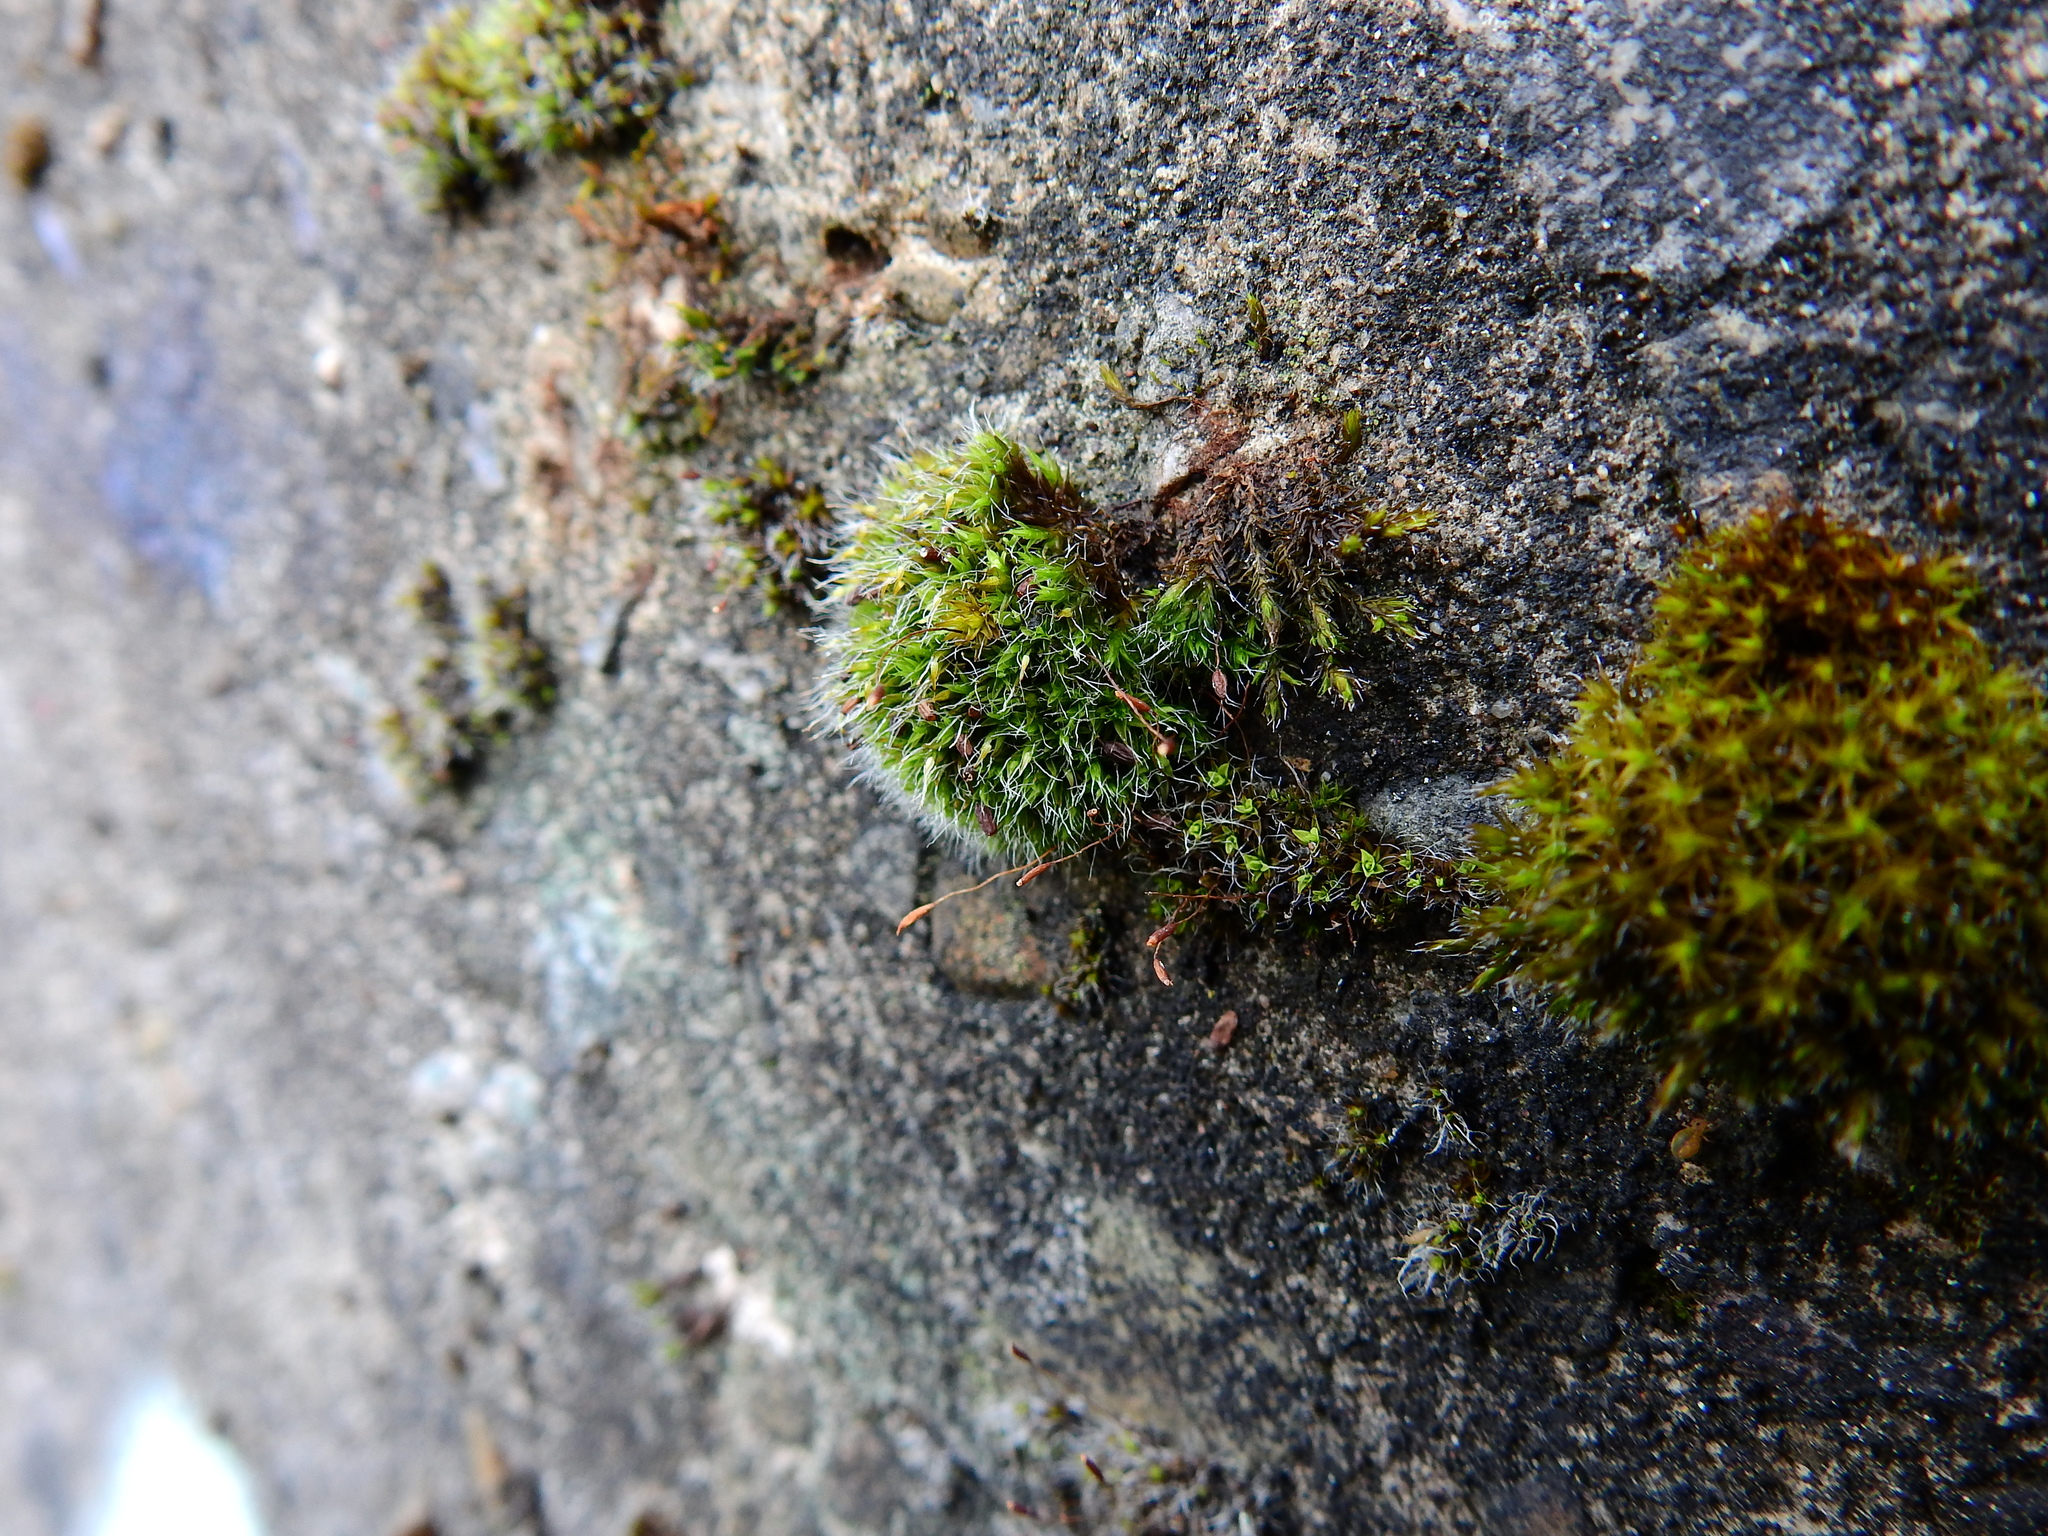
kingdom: Plantae
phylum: Bryophyta
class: Bryopsida
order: Grimmiales
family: Grimmiaceae
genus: Grimmia
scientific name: Grimmia pulvinata
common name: Grey-cushioned grimmia
